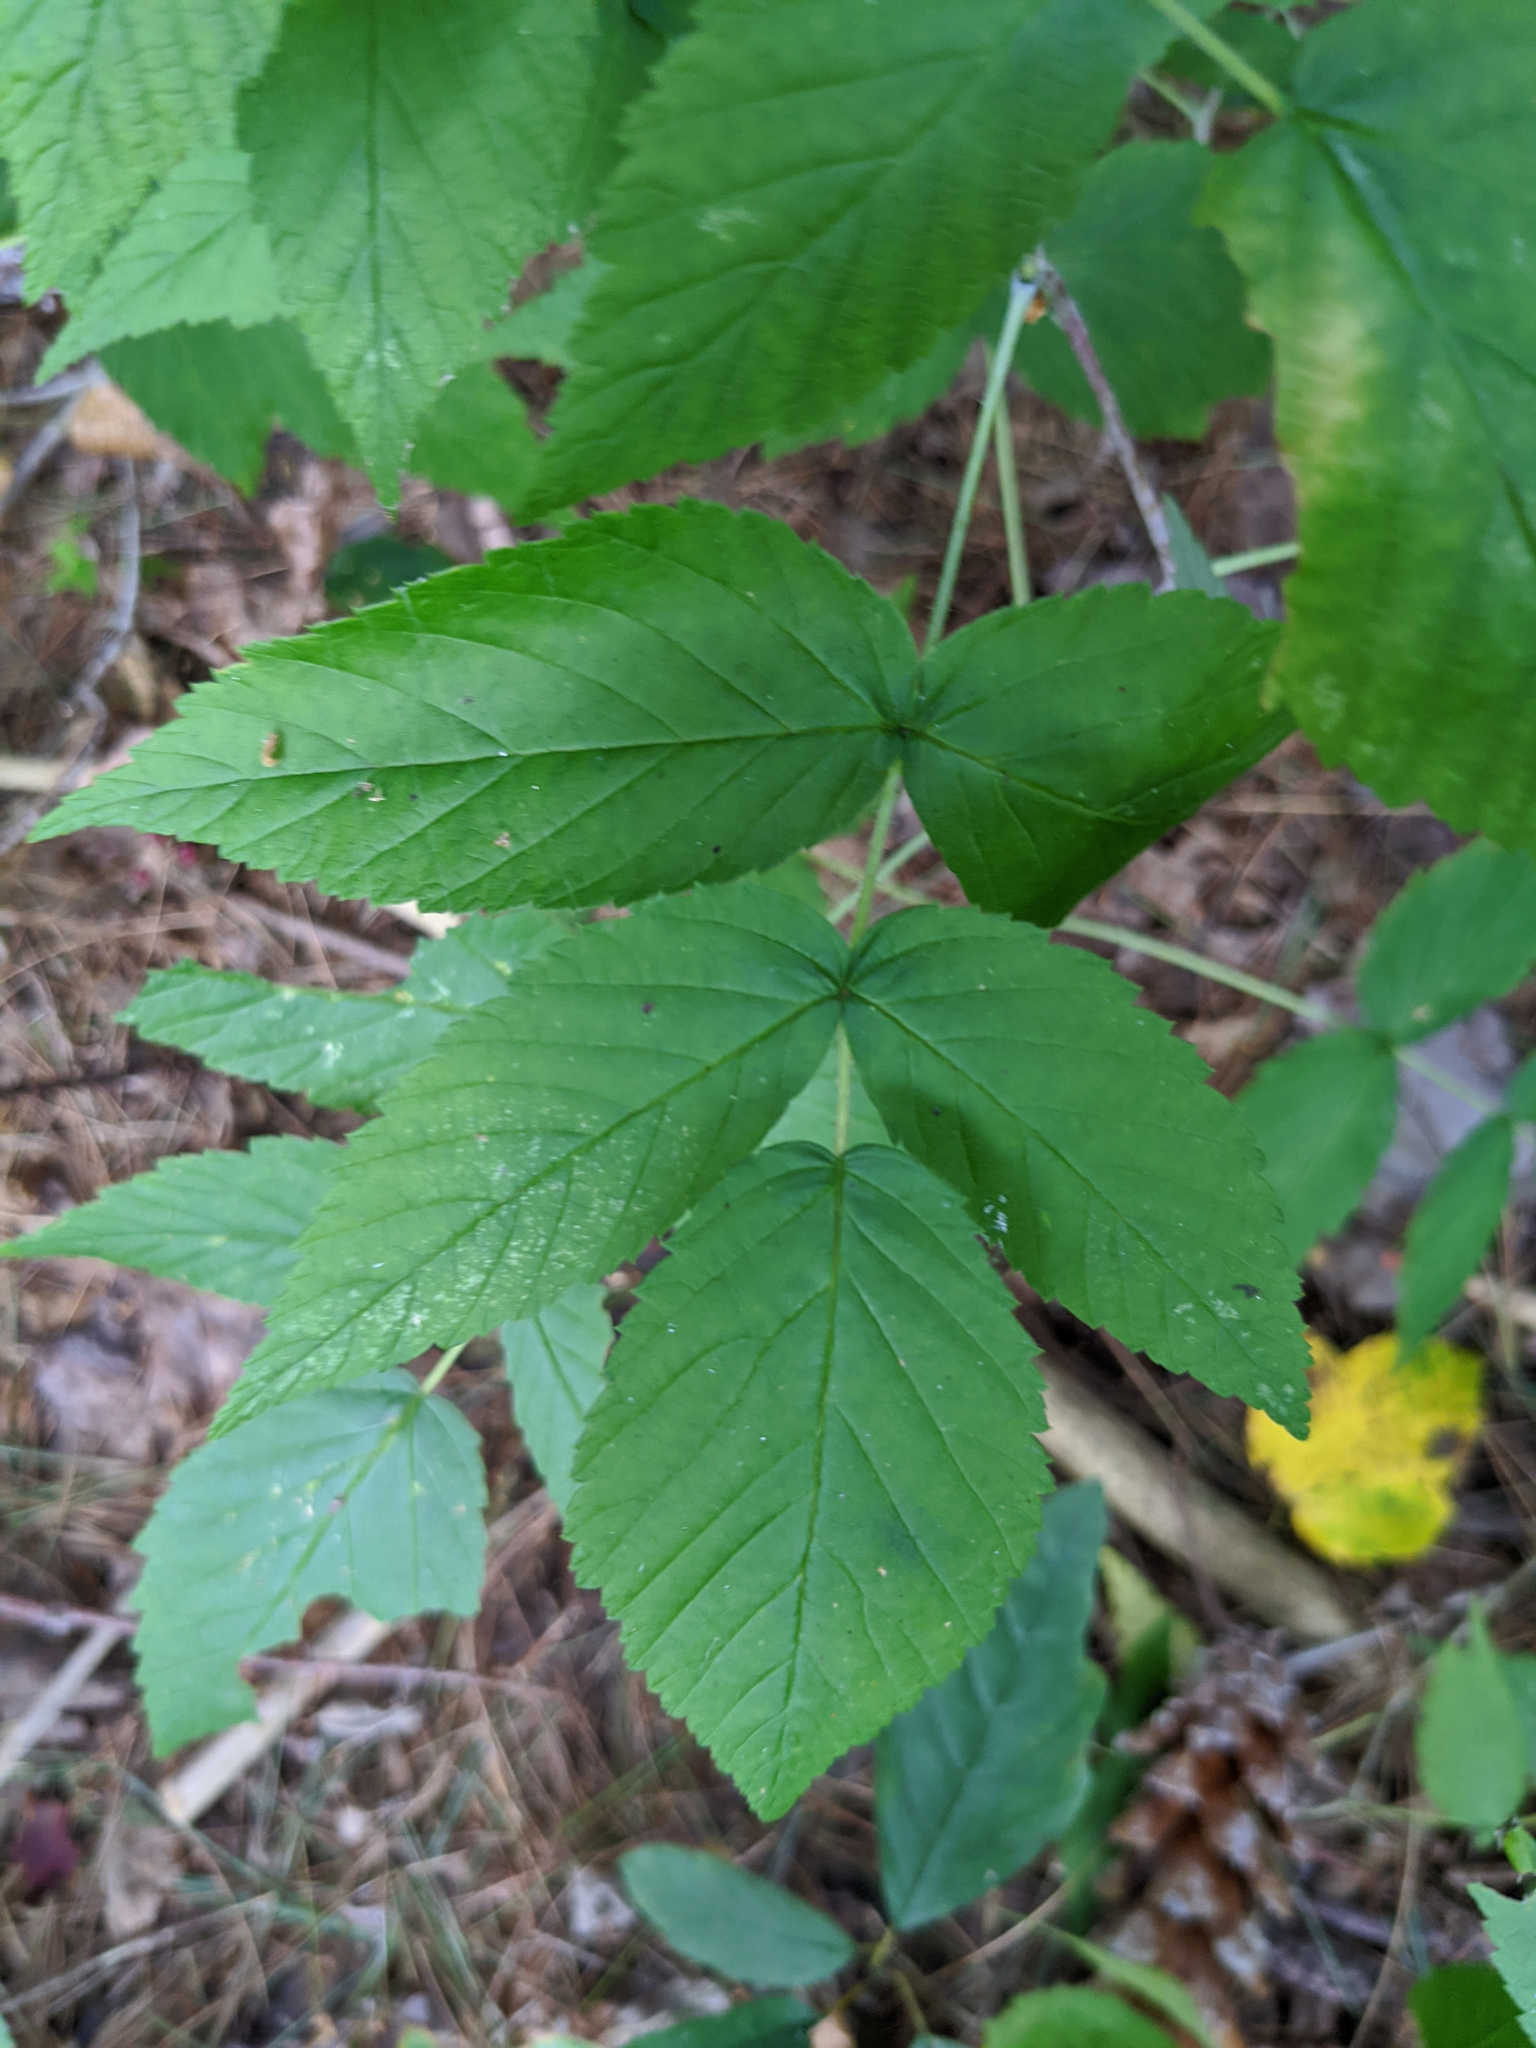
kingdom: Plantae
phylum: Tracheophyta
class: Magnoliopsida
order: Rosales
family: Rosaceae
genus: Rubus
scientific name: Rubus idaeus
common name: Raspberry
